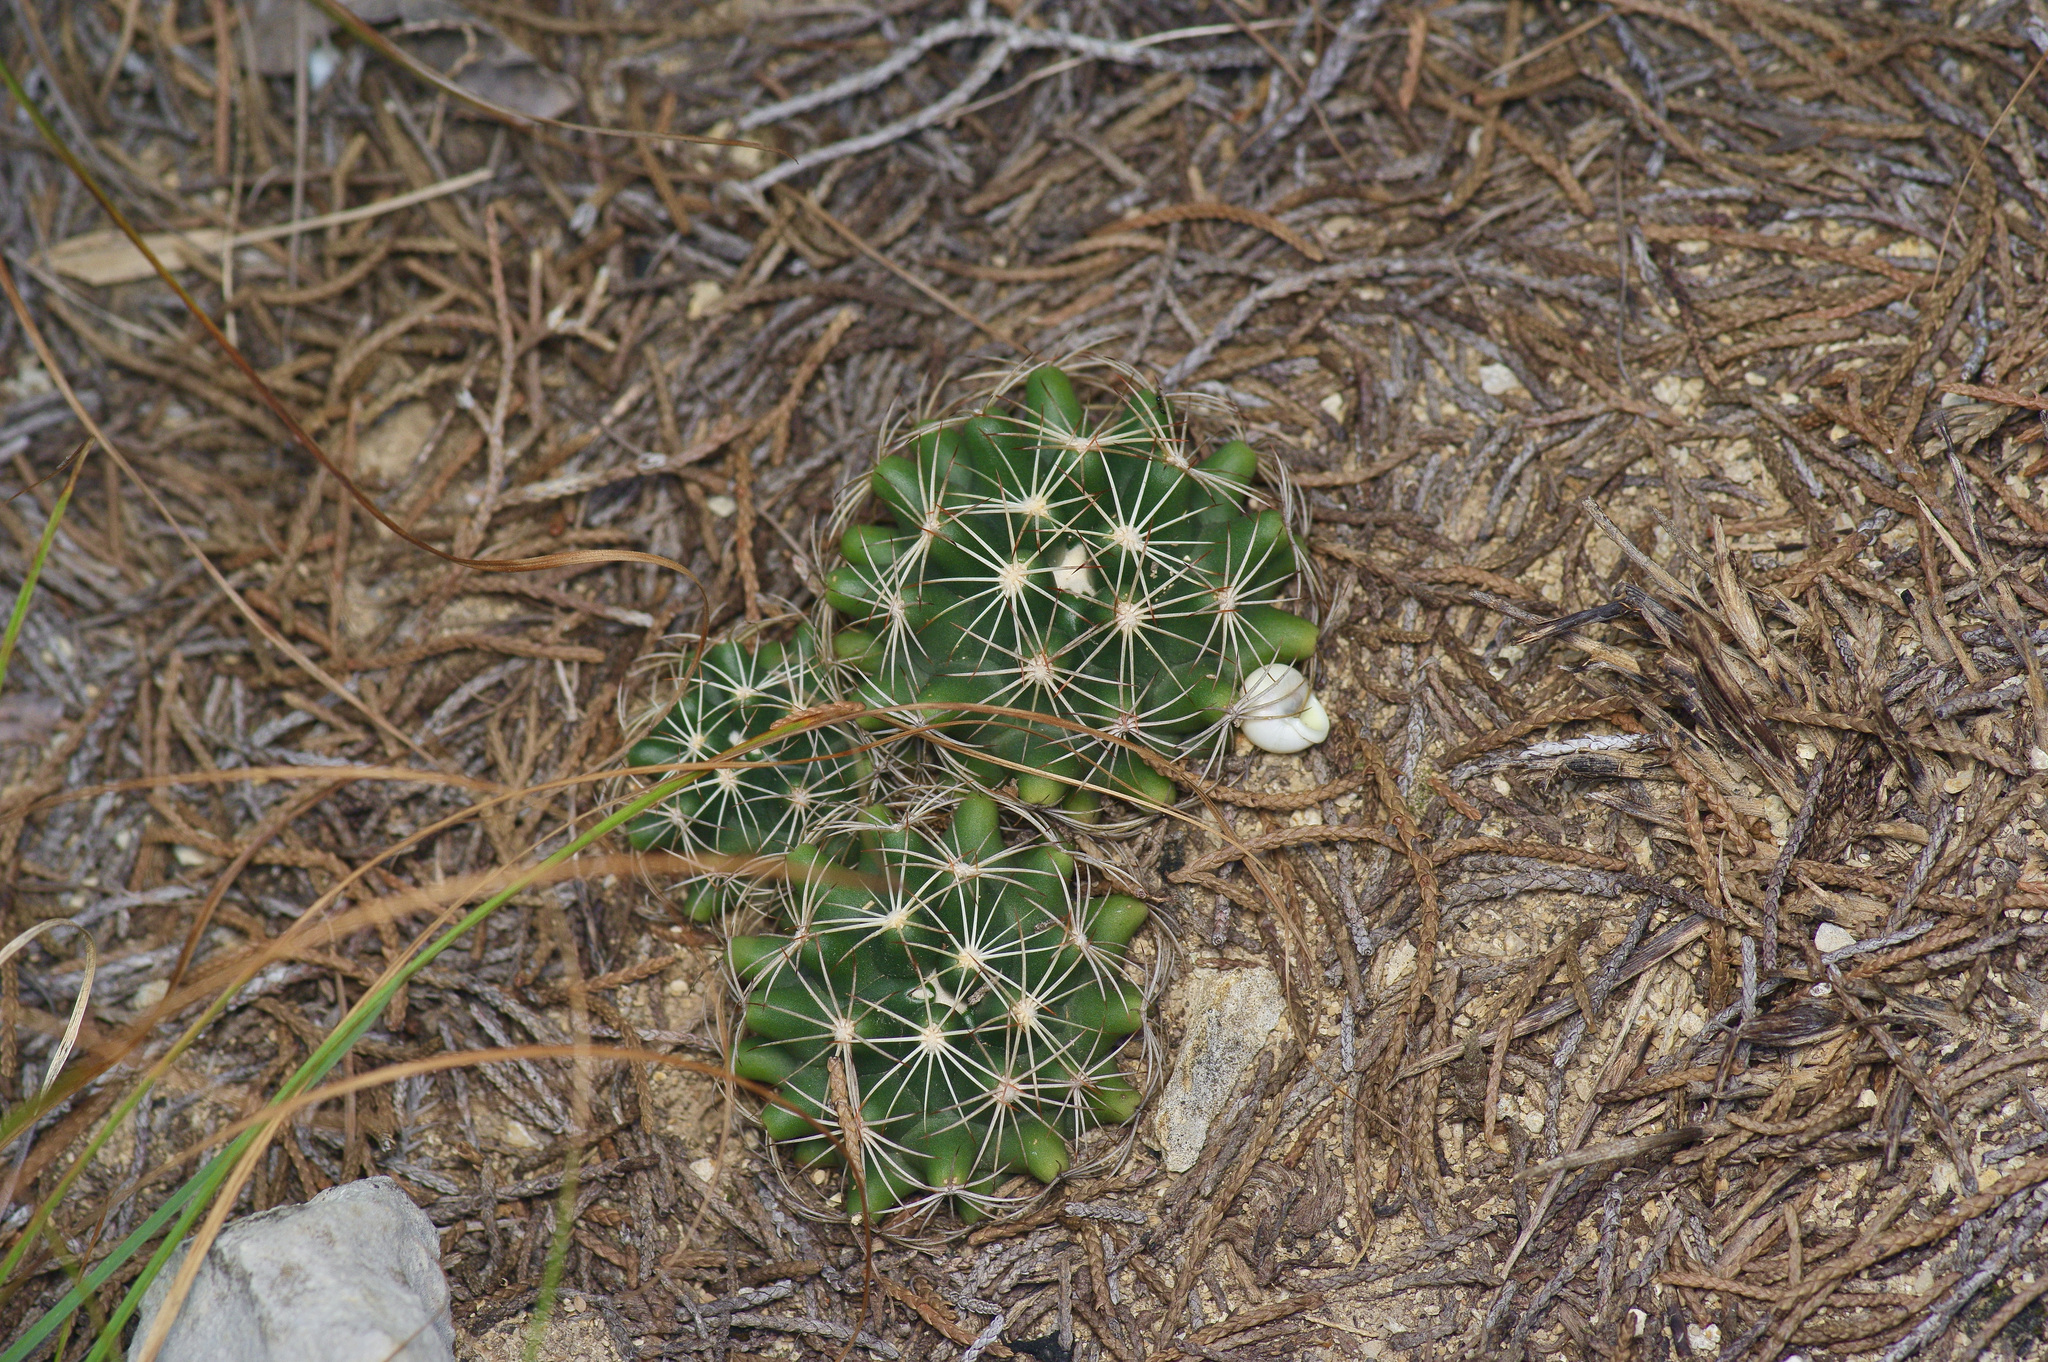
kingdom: Plantae
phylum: Tracheophyta
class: Magnoliopsida
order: Caryophyllales
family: Cactaceae
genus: Coryphantha
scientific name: Coryphantha sulcata
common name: Finger cactus
